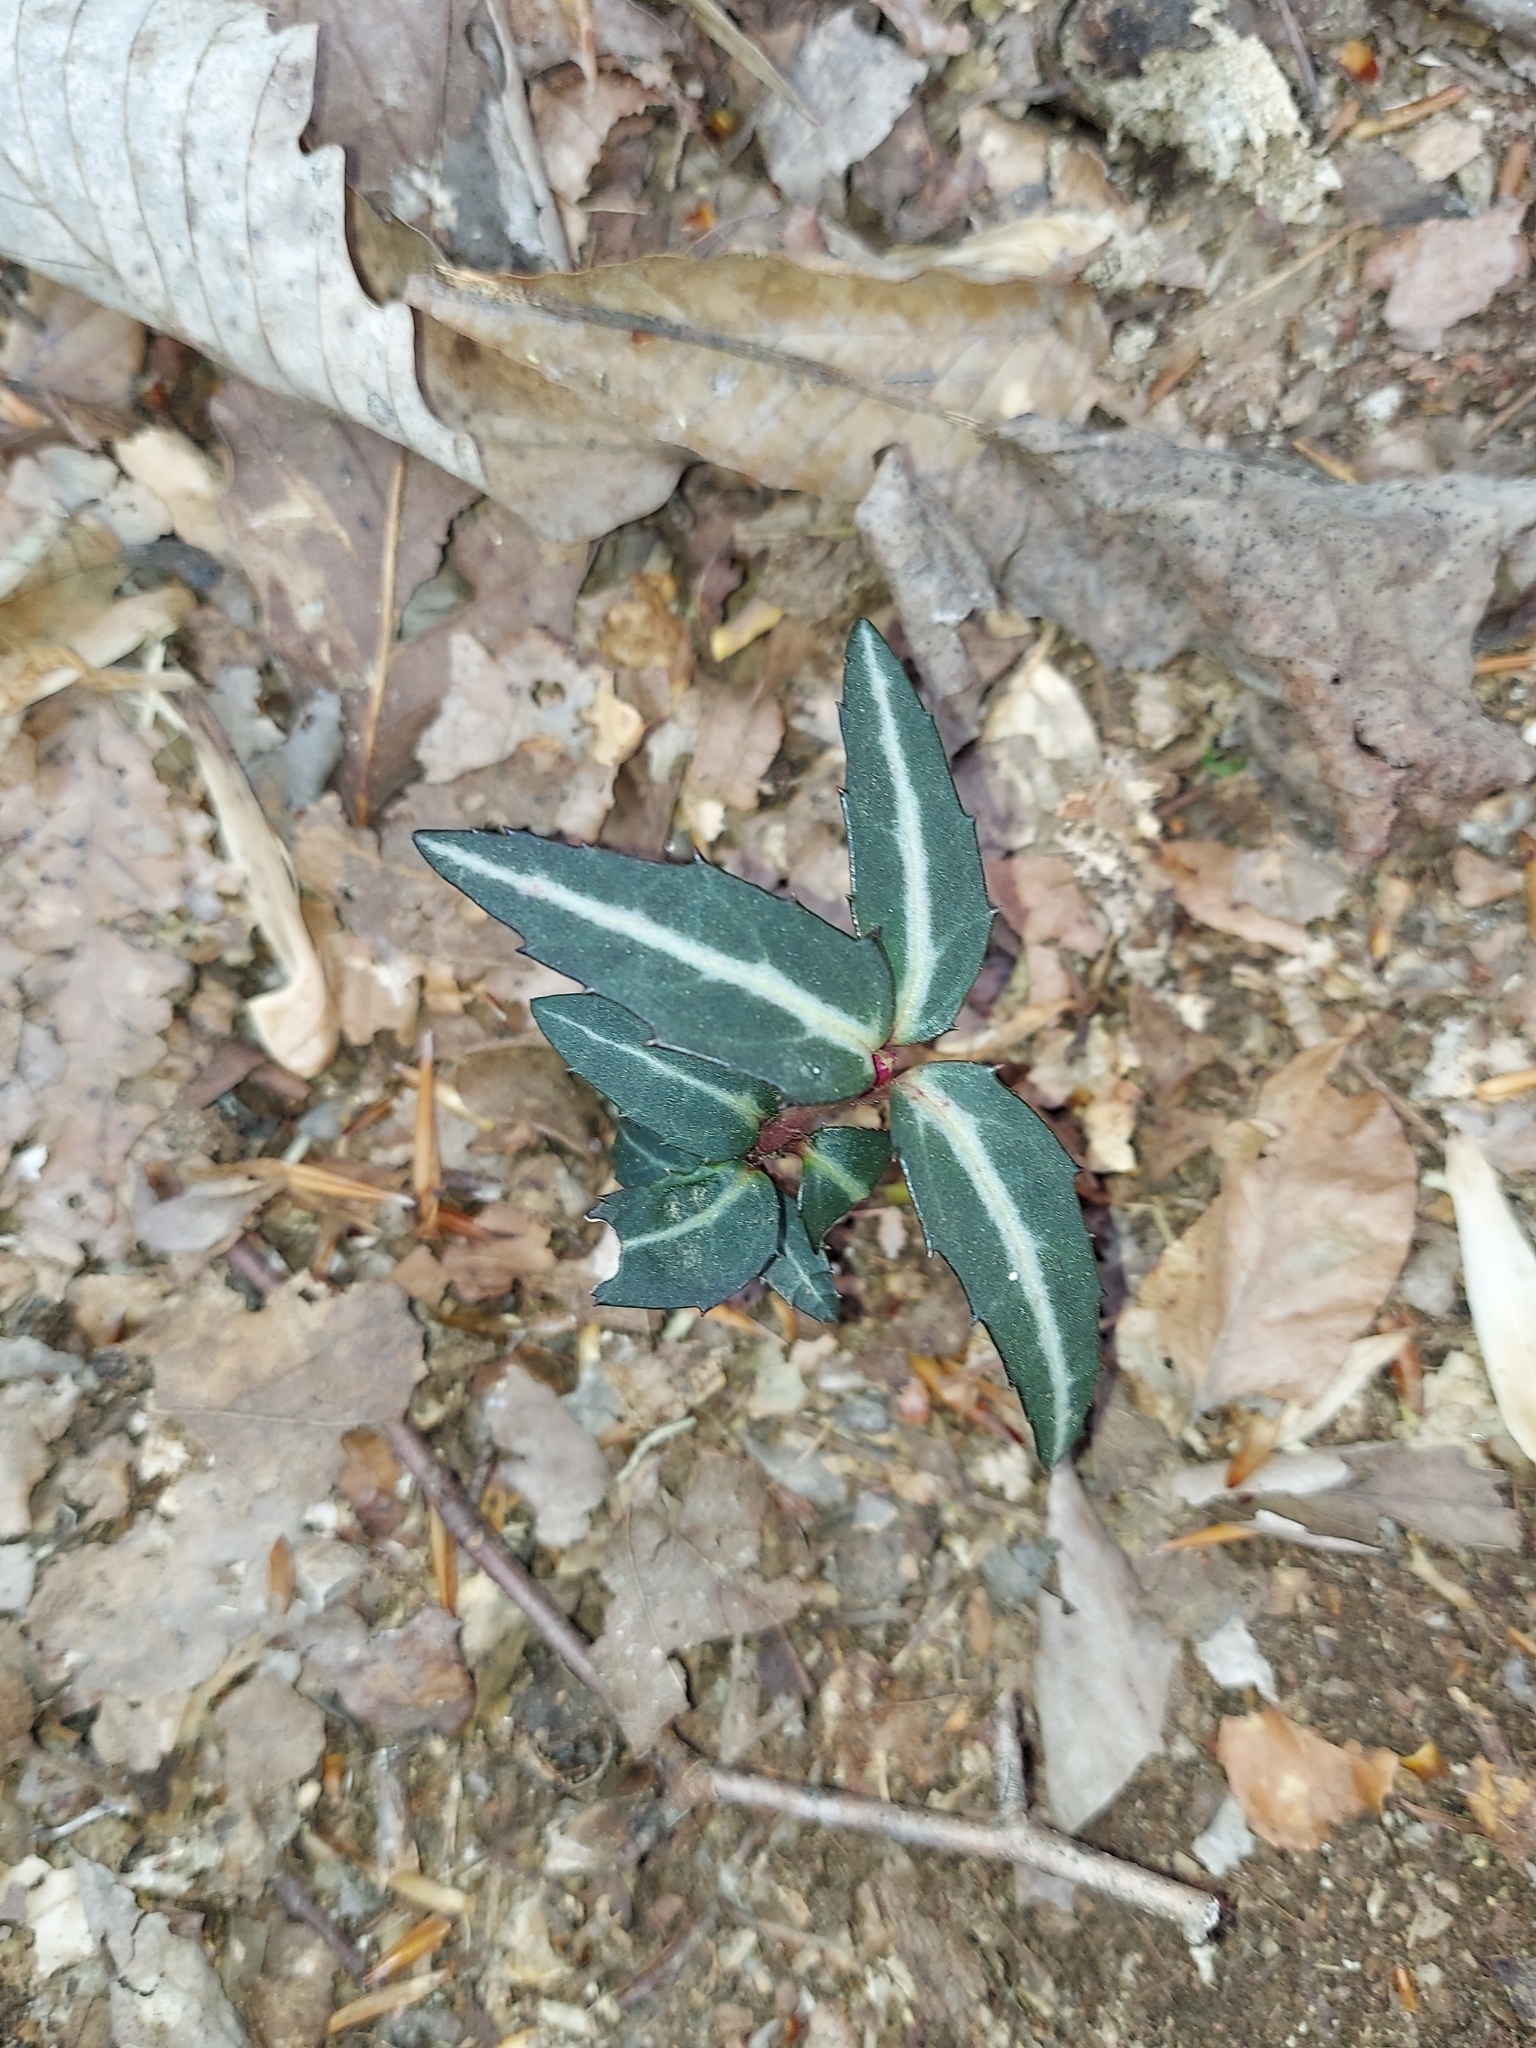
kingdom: Plantae
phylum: Tracheophyta
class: Magnoliopsida
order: Ericales
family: Ericaceae
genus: Chimaphila
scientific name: Chimaphila maculata
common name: Spotted pipsissewa
